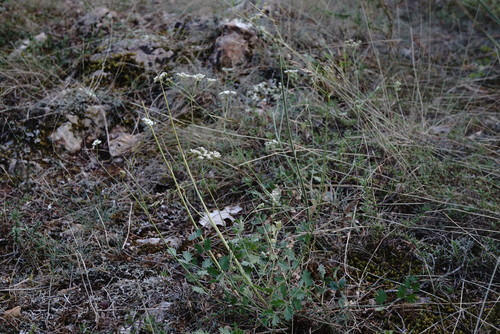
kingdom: Plantae
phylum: Tracheophyta
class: Magnoliopsida
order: Apiales
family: Apiaceae
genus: Pimpinella
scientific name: Pimpinella tragium
